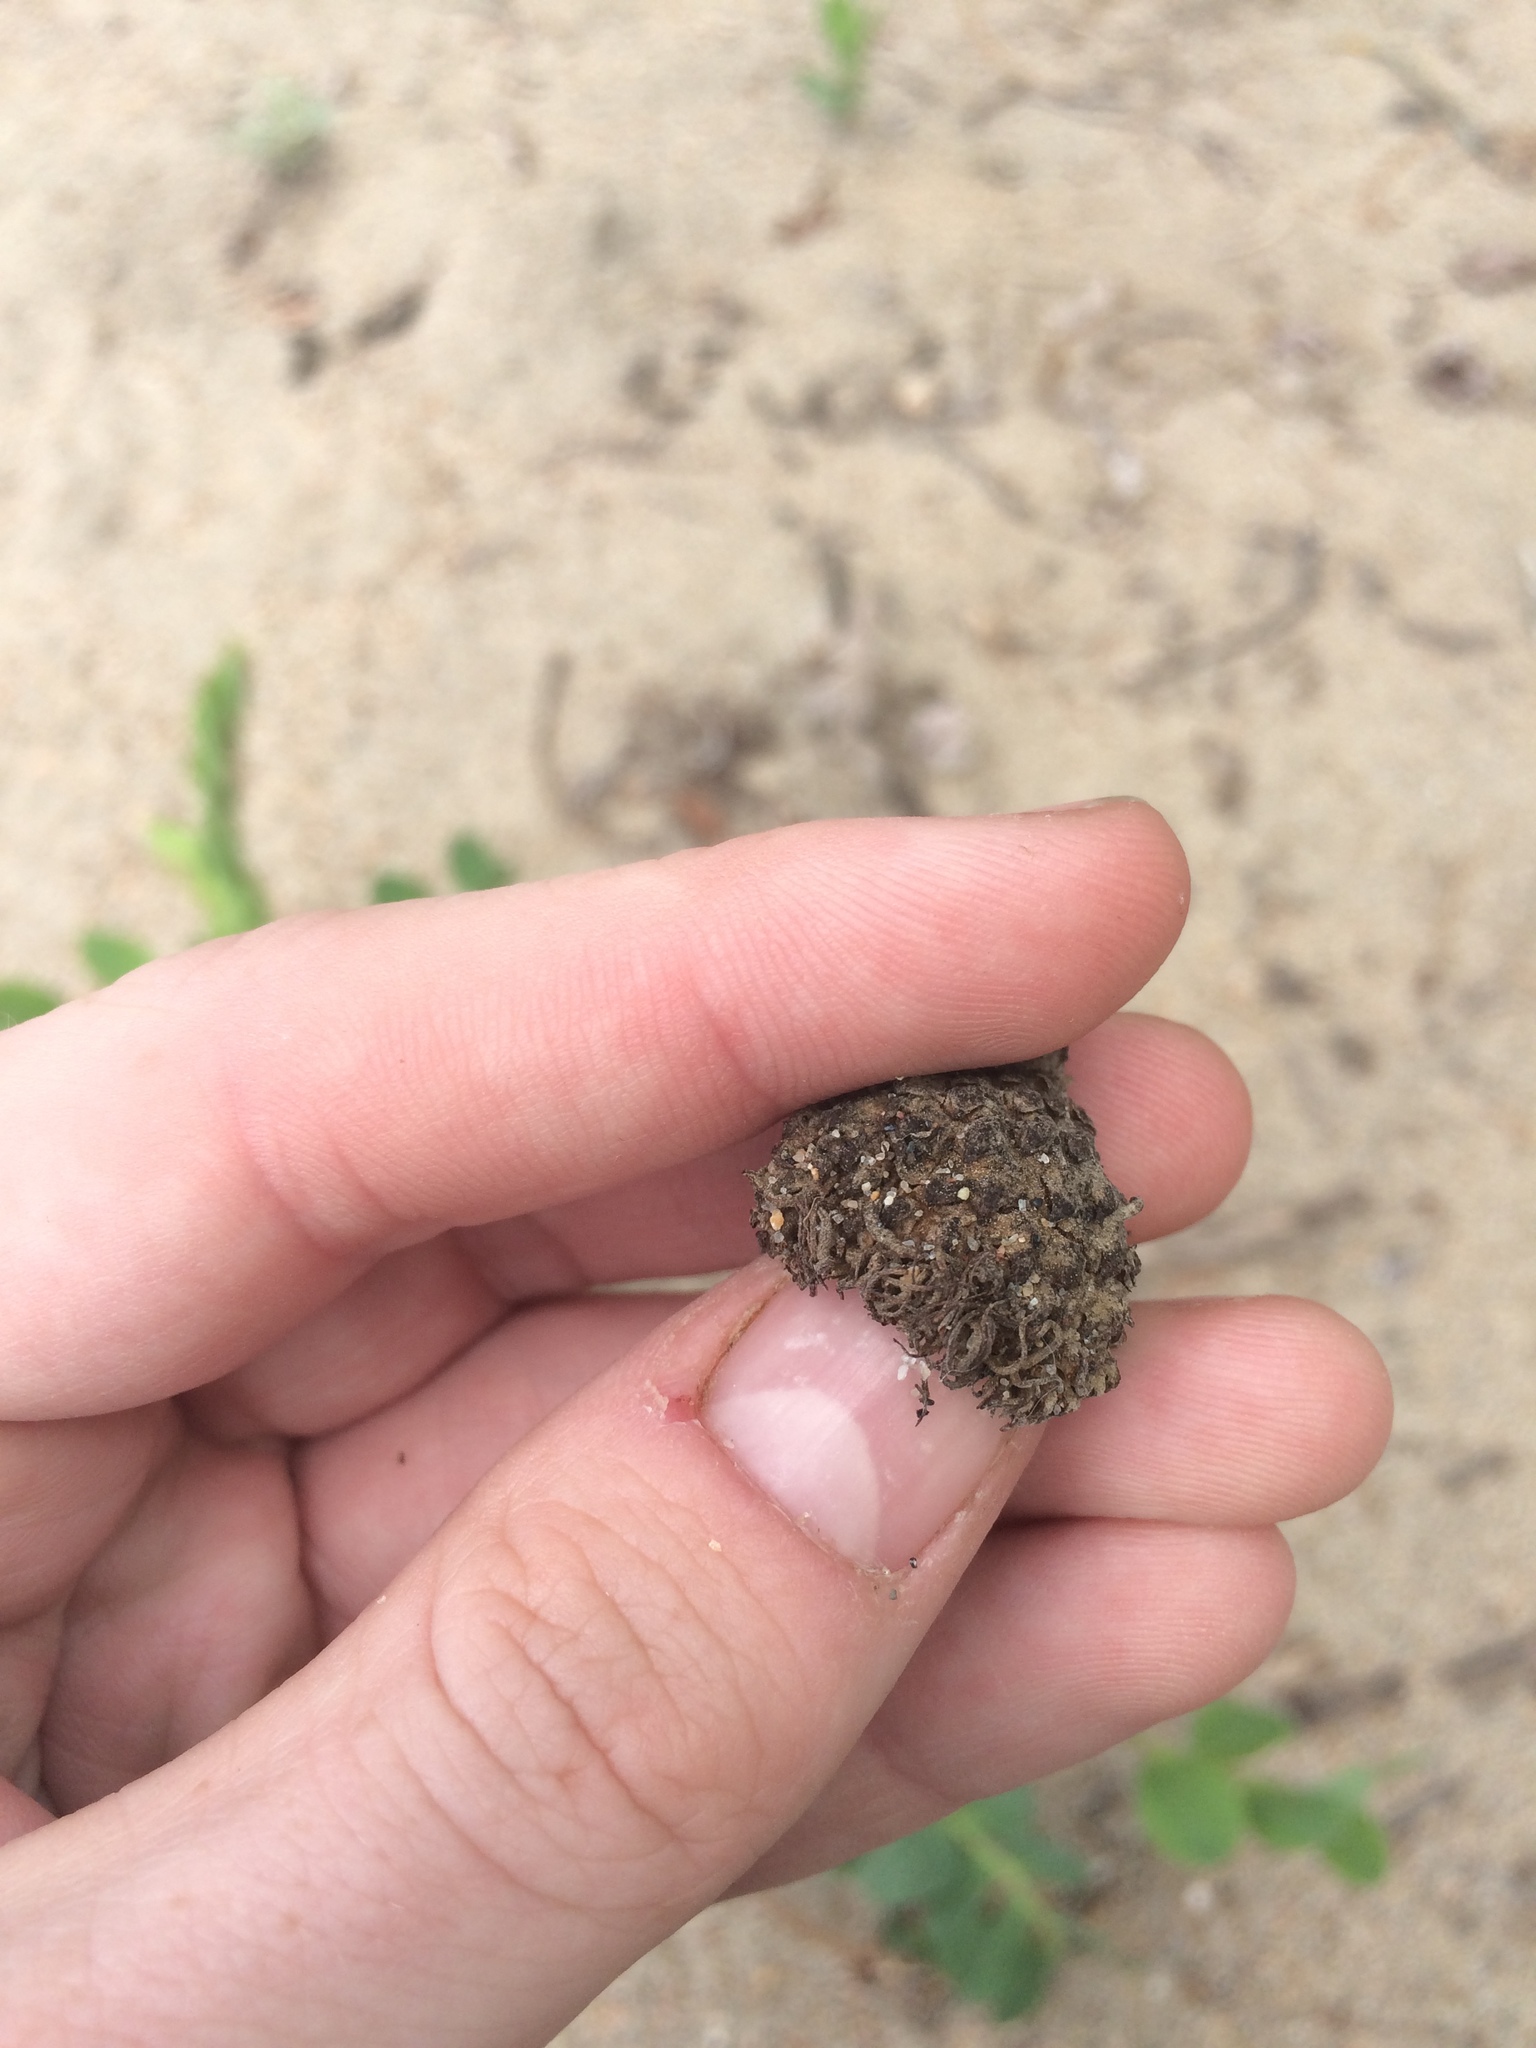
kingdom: Plantae
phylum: Tracheophyta
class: Magnoliopsida
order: Fagales
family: Fagaceae
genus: Quercus
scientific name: Quercus macrocarpa
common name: Bur oak
